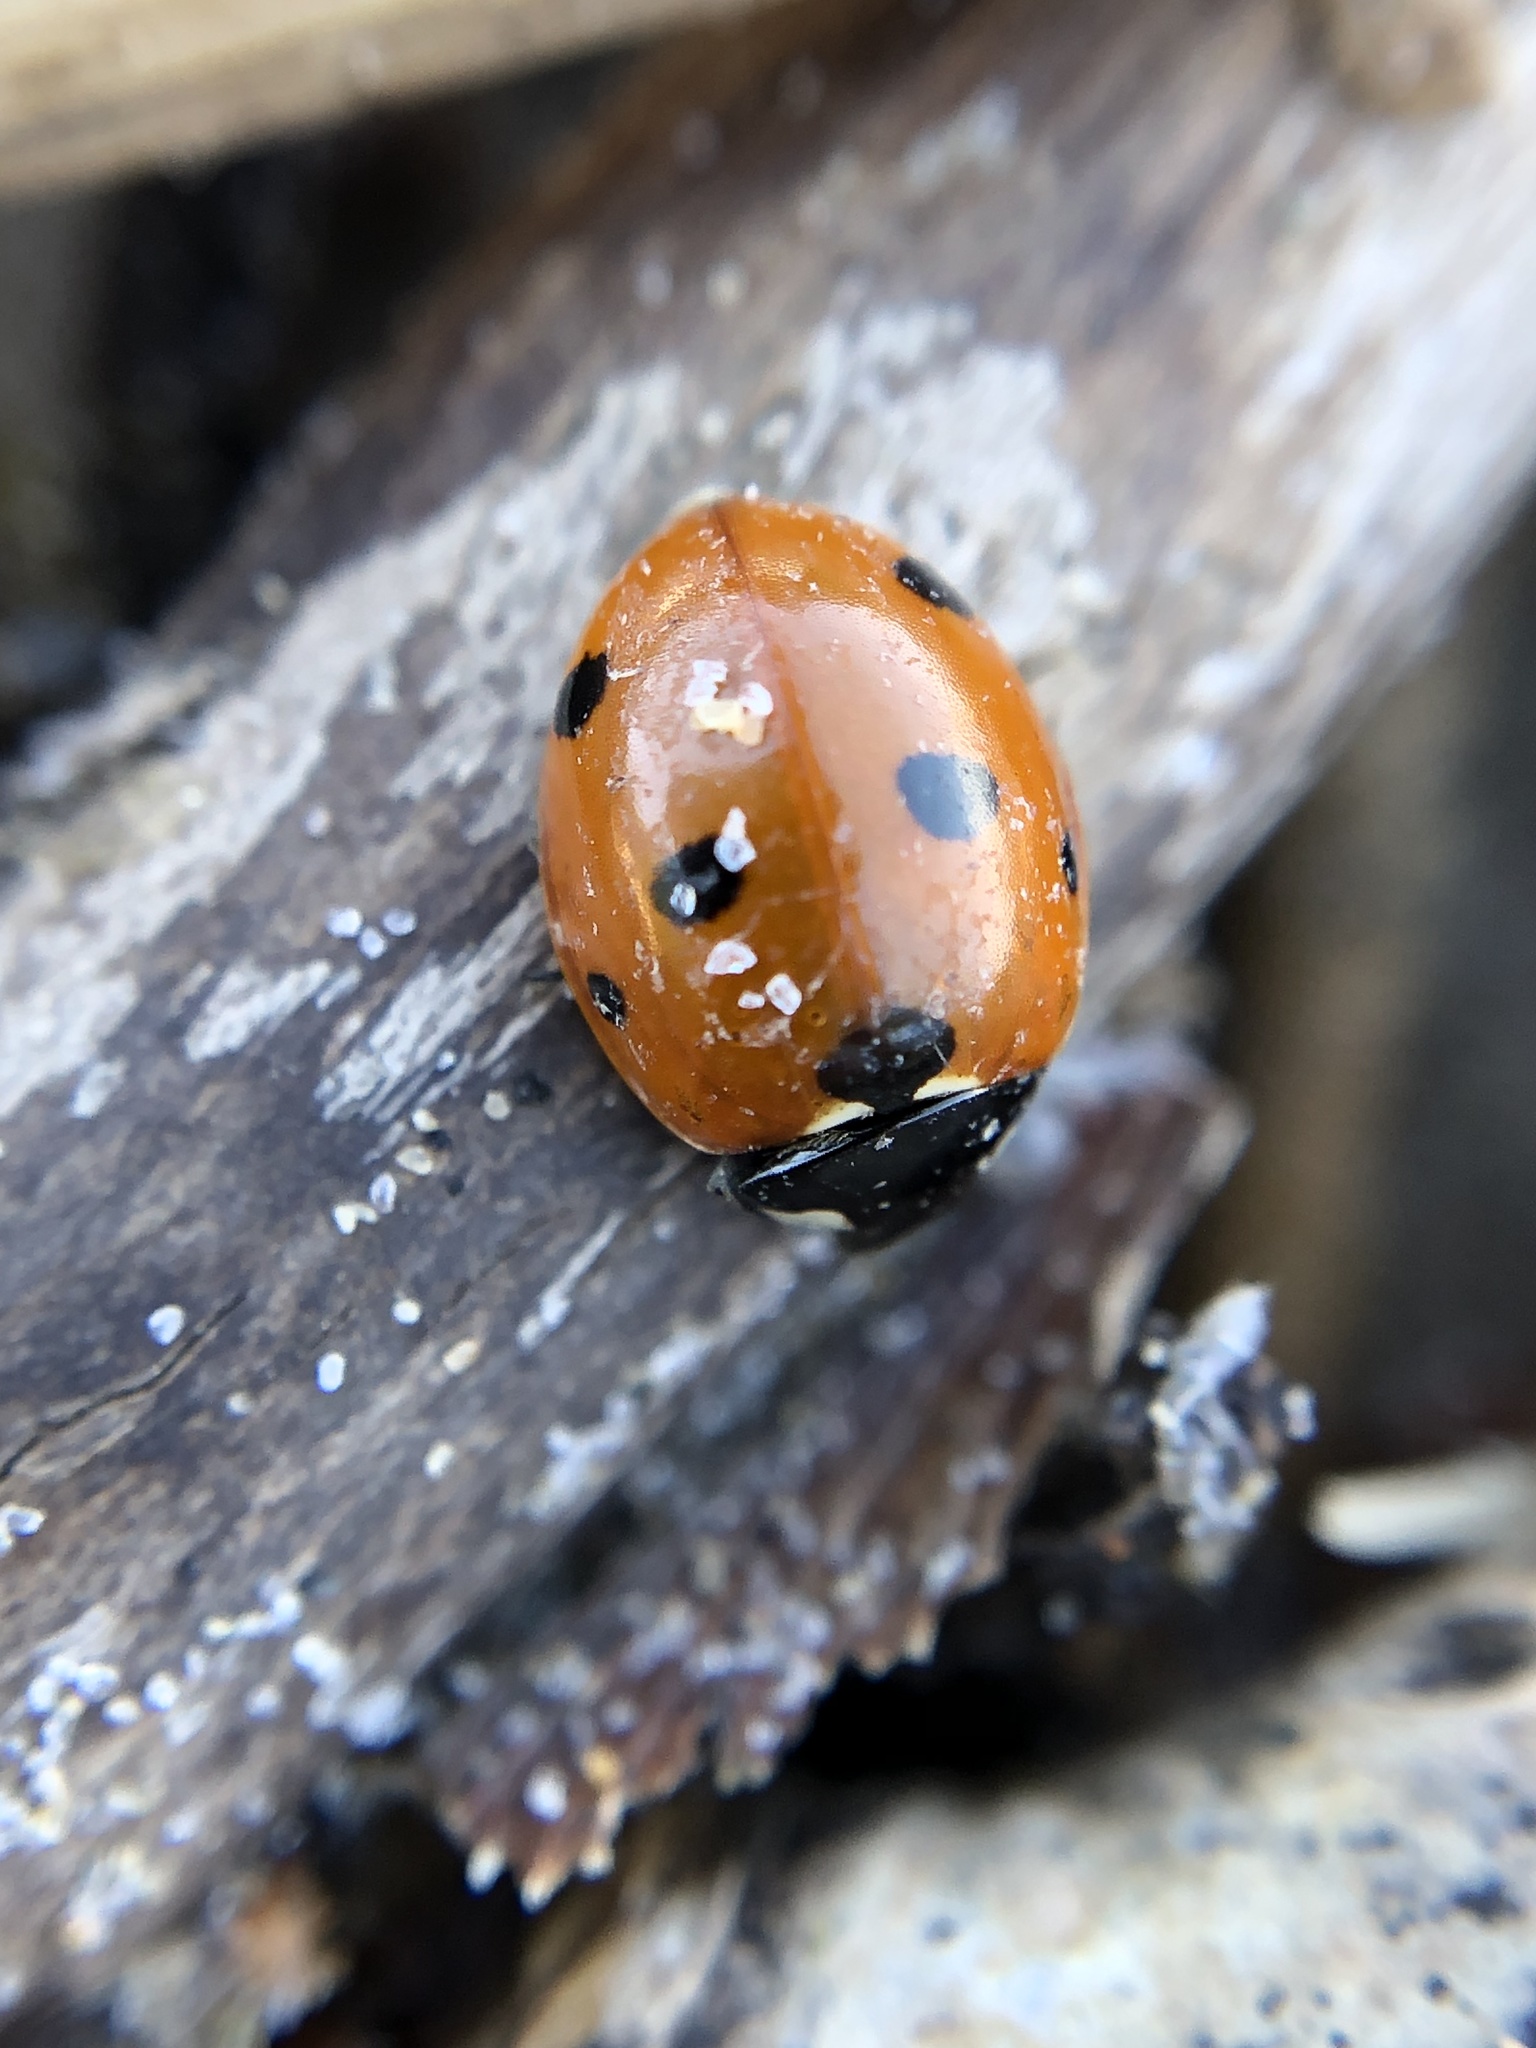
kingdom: Animalia
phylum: Arthropoda
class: Insecta
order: Coleoptera
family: Coccinellidae
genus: Coccinella
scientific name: Coccinella septempunctata
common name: Sevenspotted lady beetle
